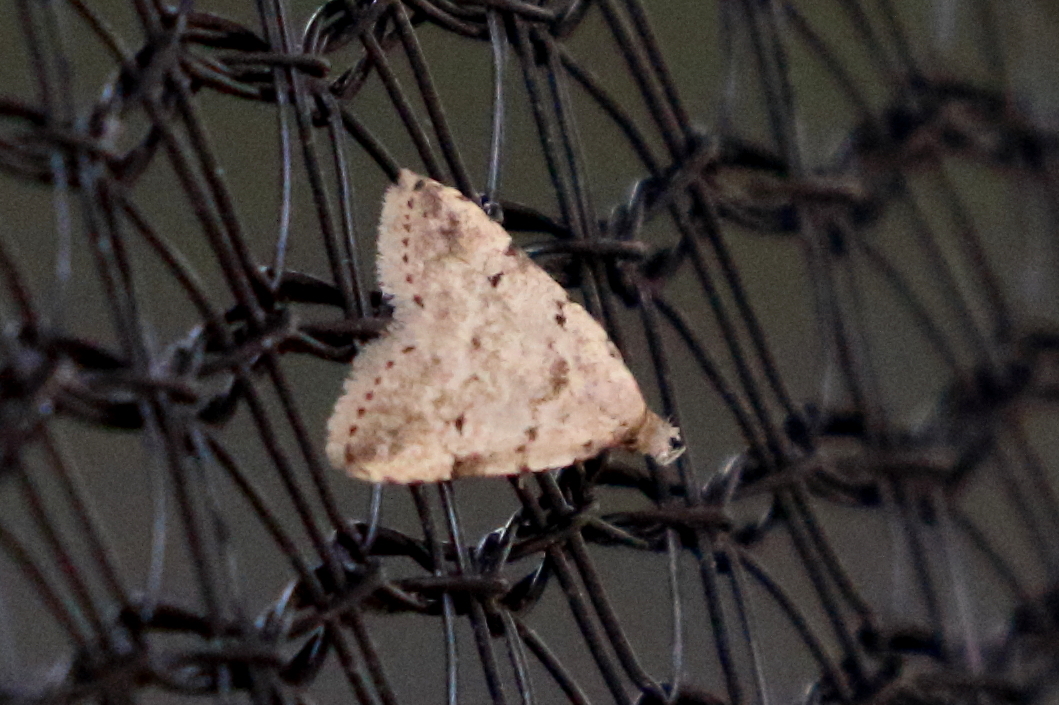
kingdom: Animalia
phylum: Arthropoda
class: Insecta
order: Lepidoptera
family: Erebidae
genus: Magna
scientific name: Magna myops
